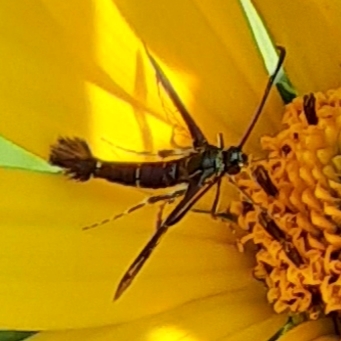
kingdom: Animalia
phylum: Arthropoda
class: Insecta
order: Lepidoptera
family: Sesiidae
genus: Carmenta
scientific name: Carmenta ithacae
